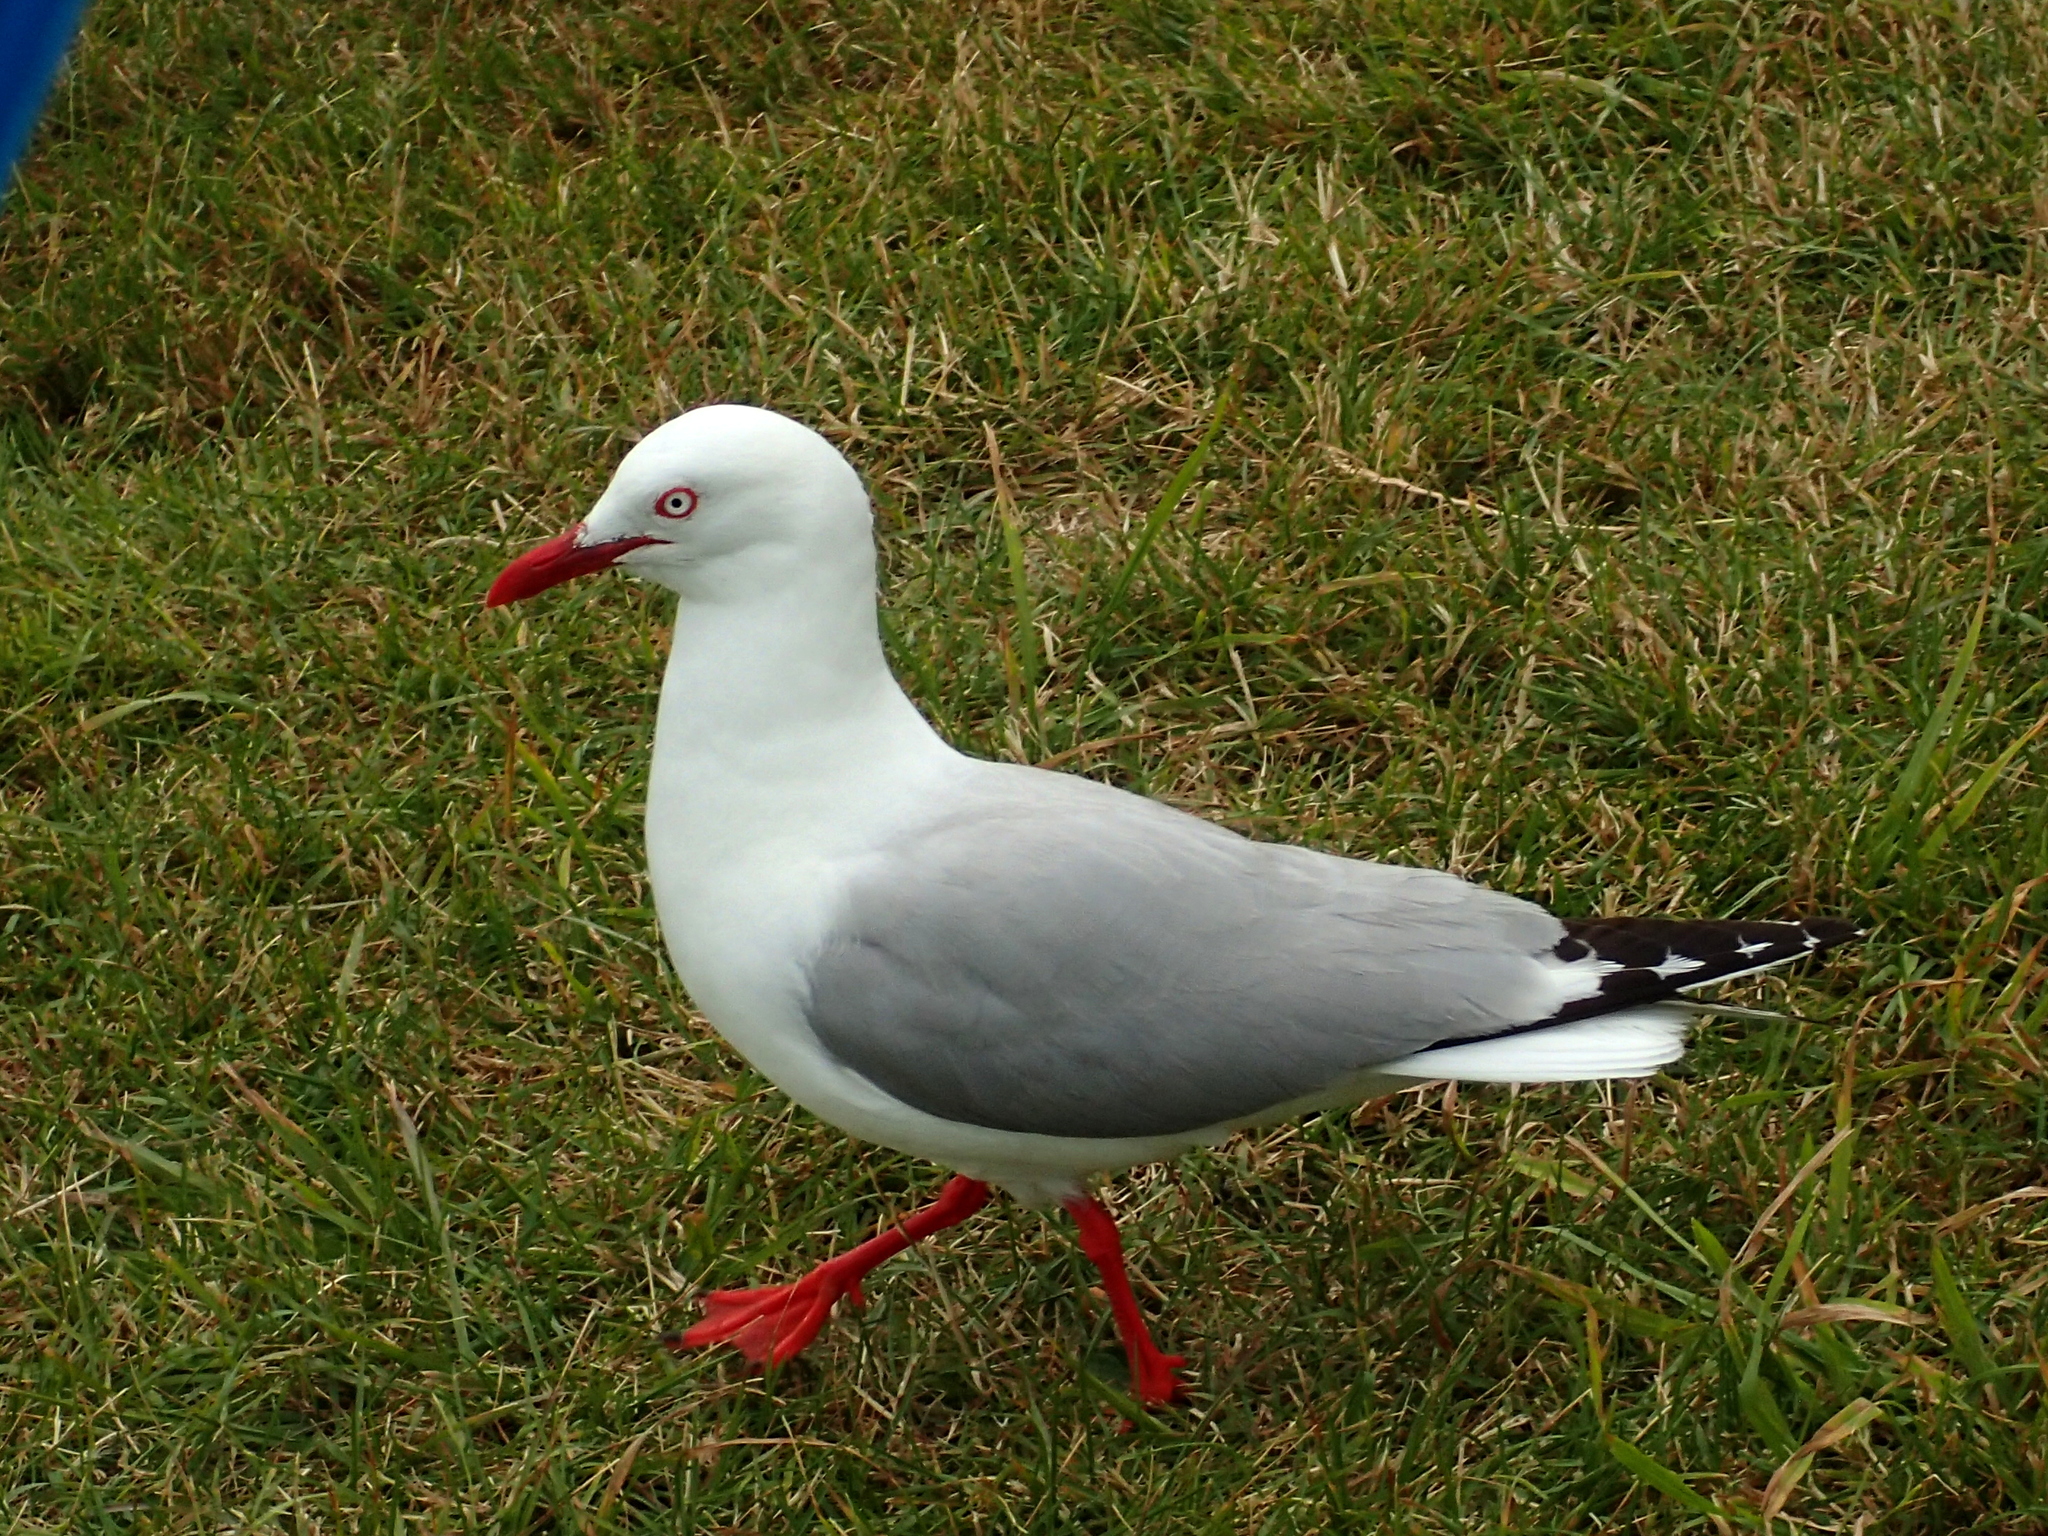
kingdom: Animalia
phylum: Chordata
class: Aves
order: Charadriiformes
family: Laridae
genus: Chroicocephalus
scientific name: Chroicocephalus novaehollandiae
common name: Silver gull
